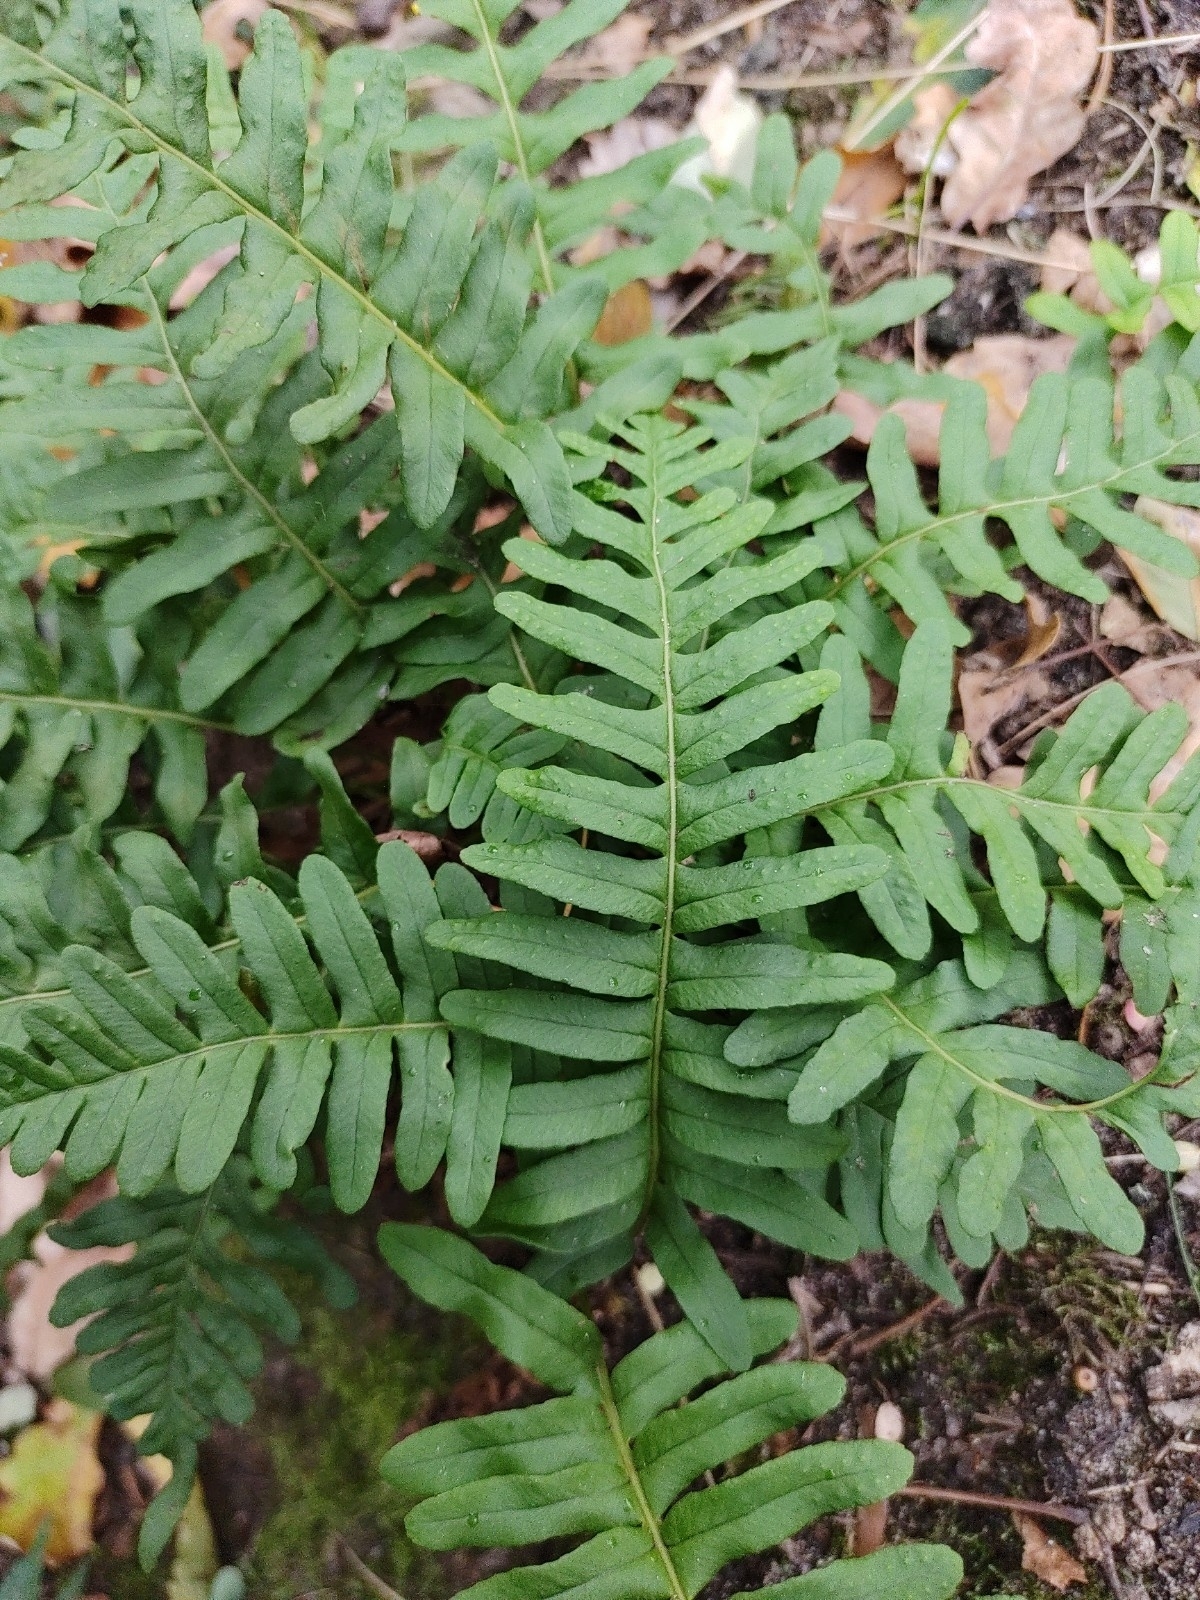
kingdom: Plantae
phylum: Tracheophyta
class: Polypodiopsida
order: Polypodiales
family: Polypodiaceae
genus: Polypodium
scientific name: Polypodium vulgare
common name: Common polypody
